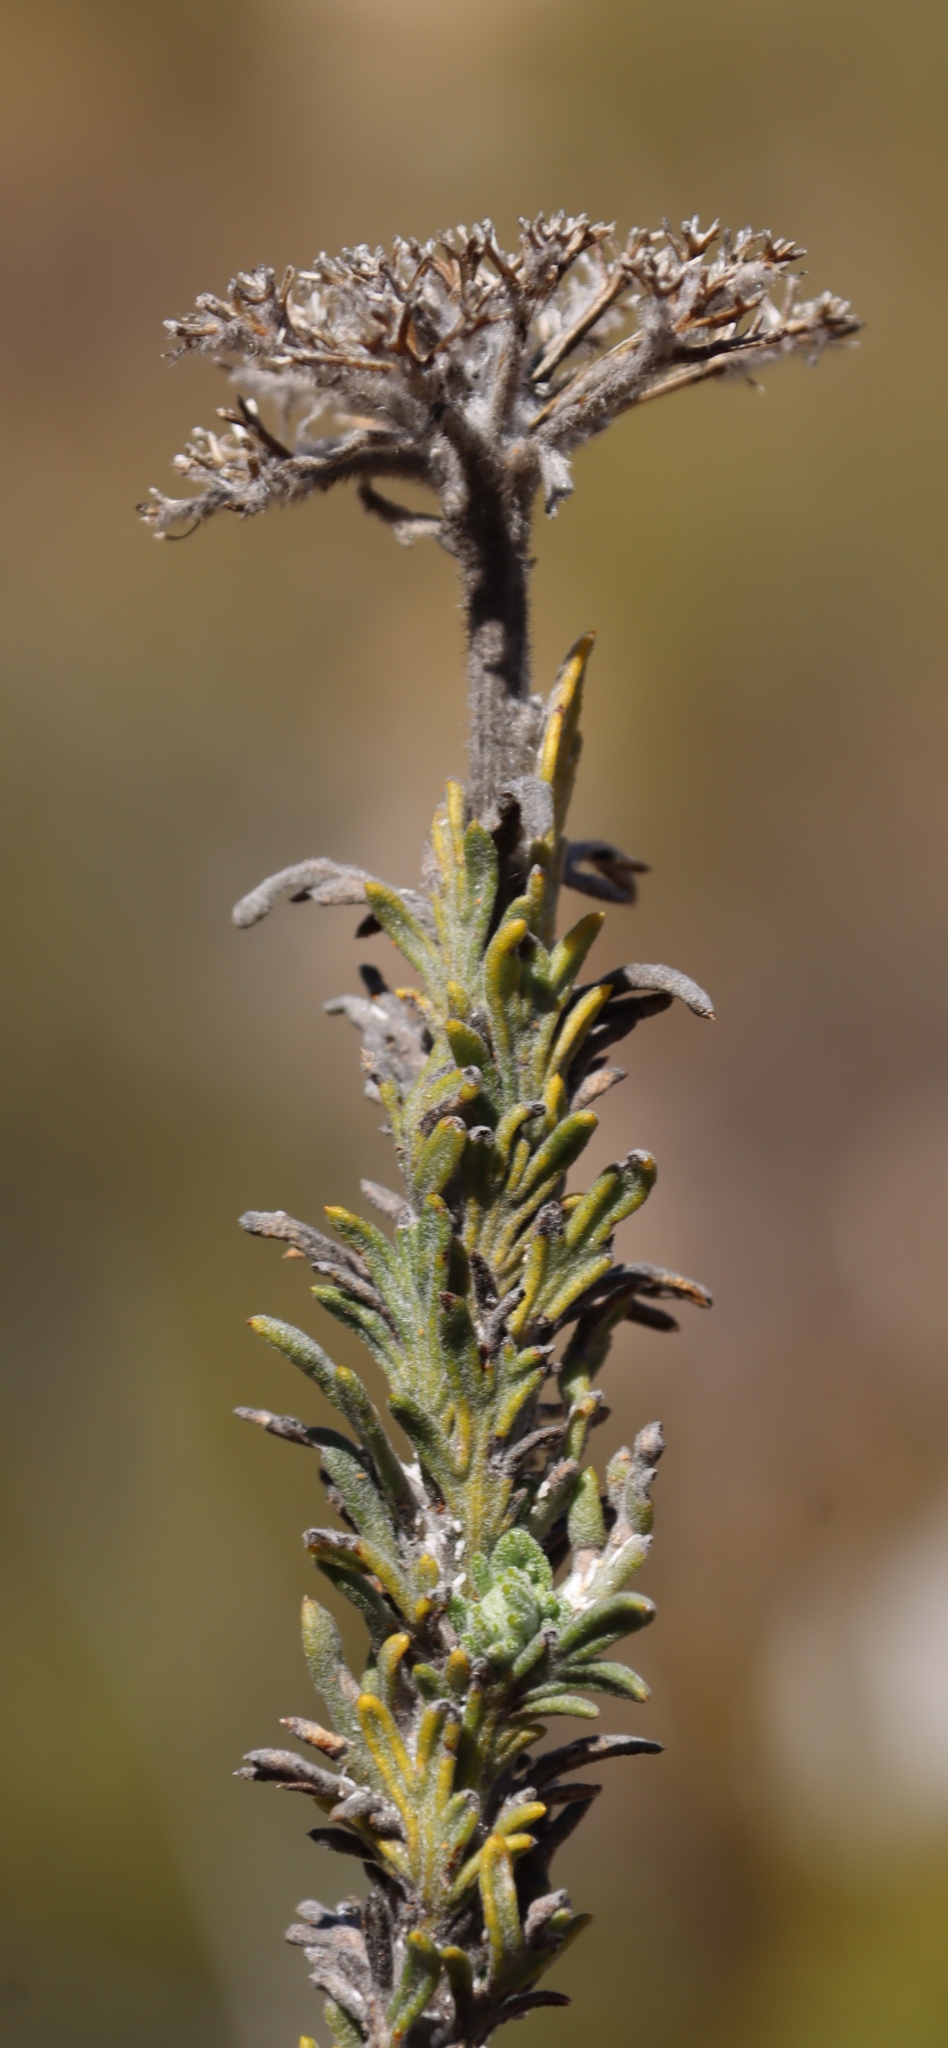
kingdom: Plantae
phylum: Tracheophyta
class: Magnoliopsida
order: Asterales
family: Asteraceae
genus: Athanasia
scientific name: Athanasia pinnata
